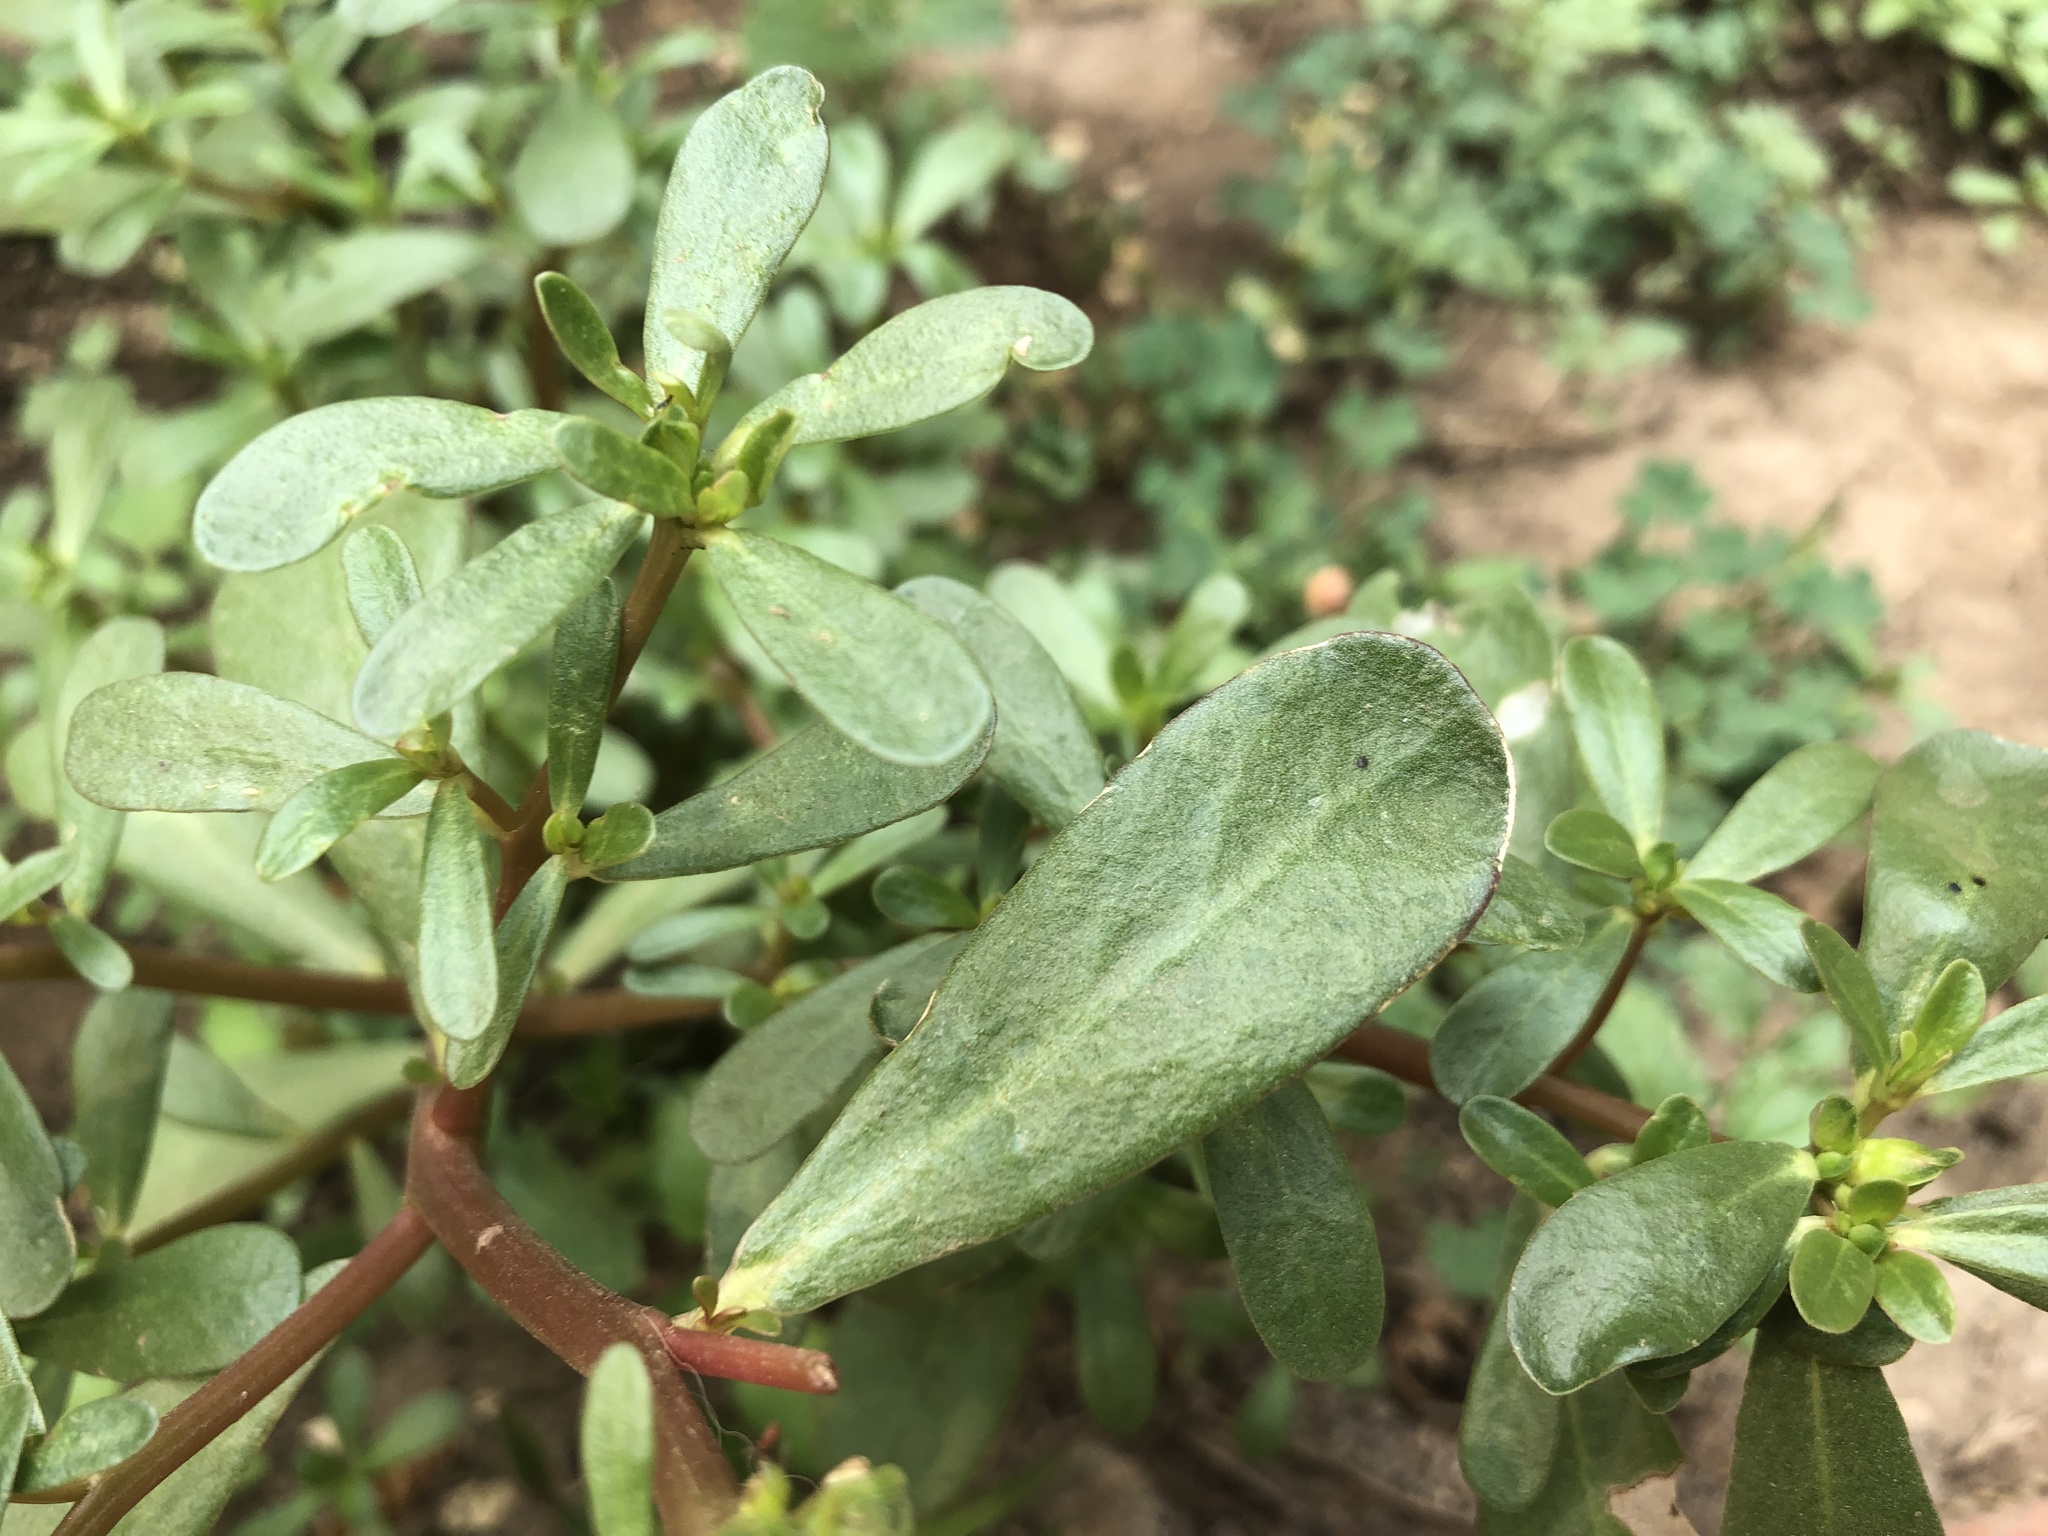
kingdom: Plantae
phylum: Tracheophyta
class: Magnoliopsida
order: Caryophyllales
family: Portulacaceae
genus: Portulaca
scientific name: Portulaca oleracea
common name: Common purslane
